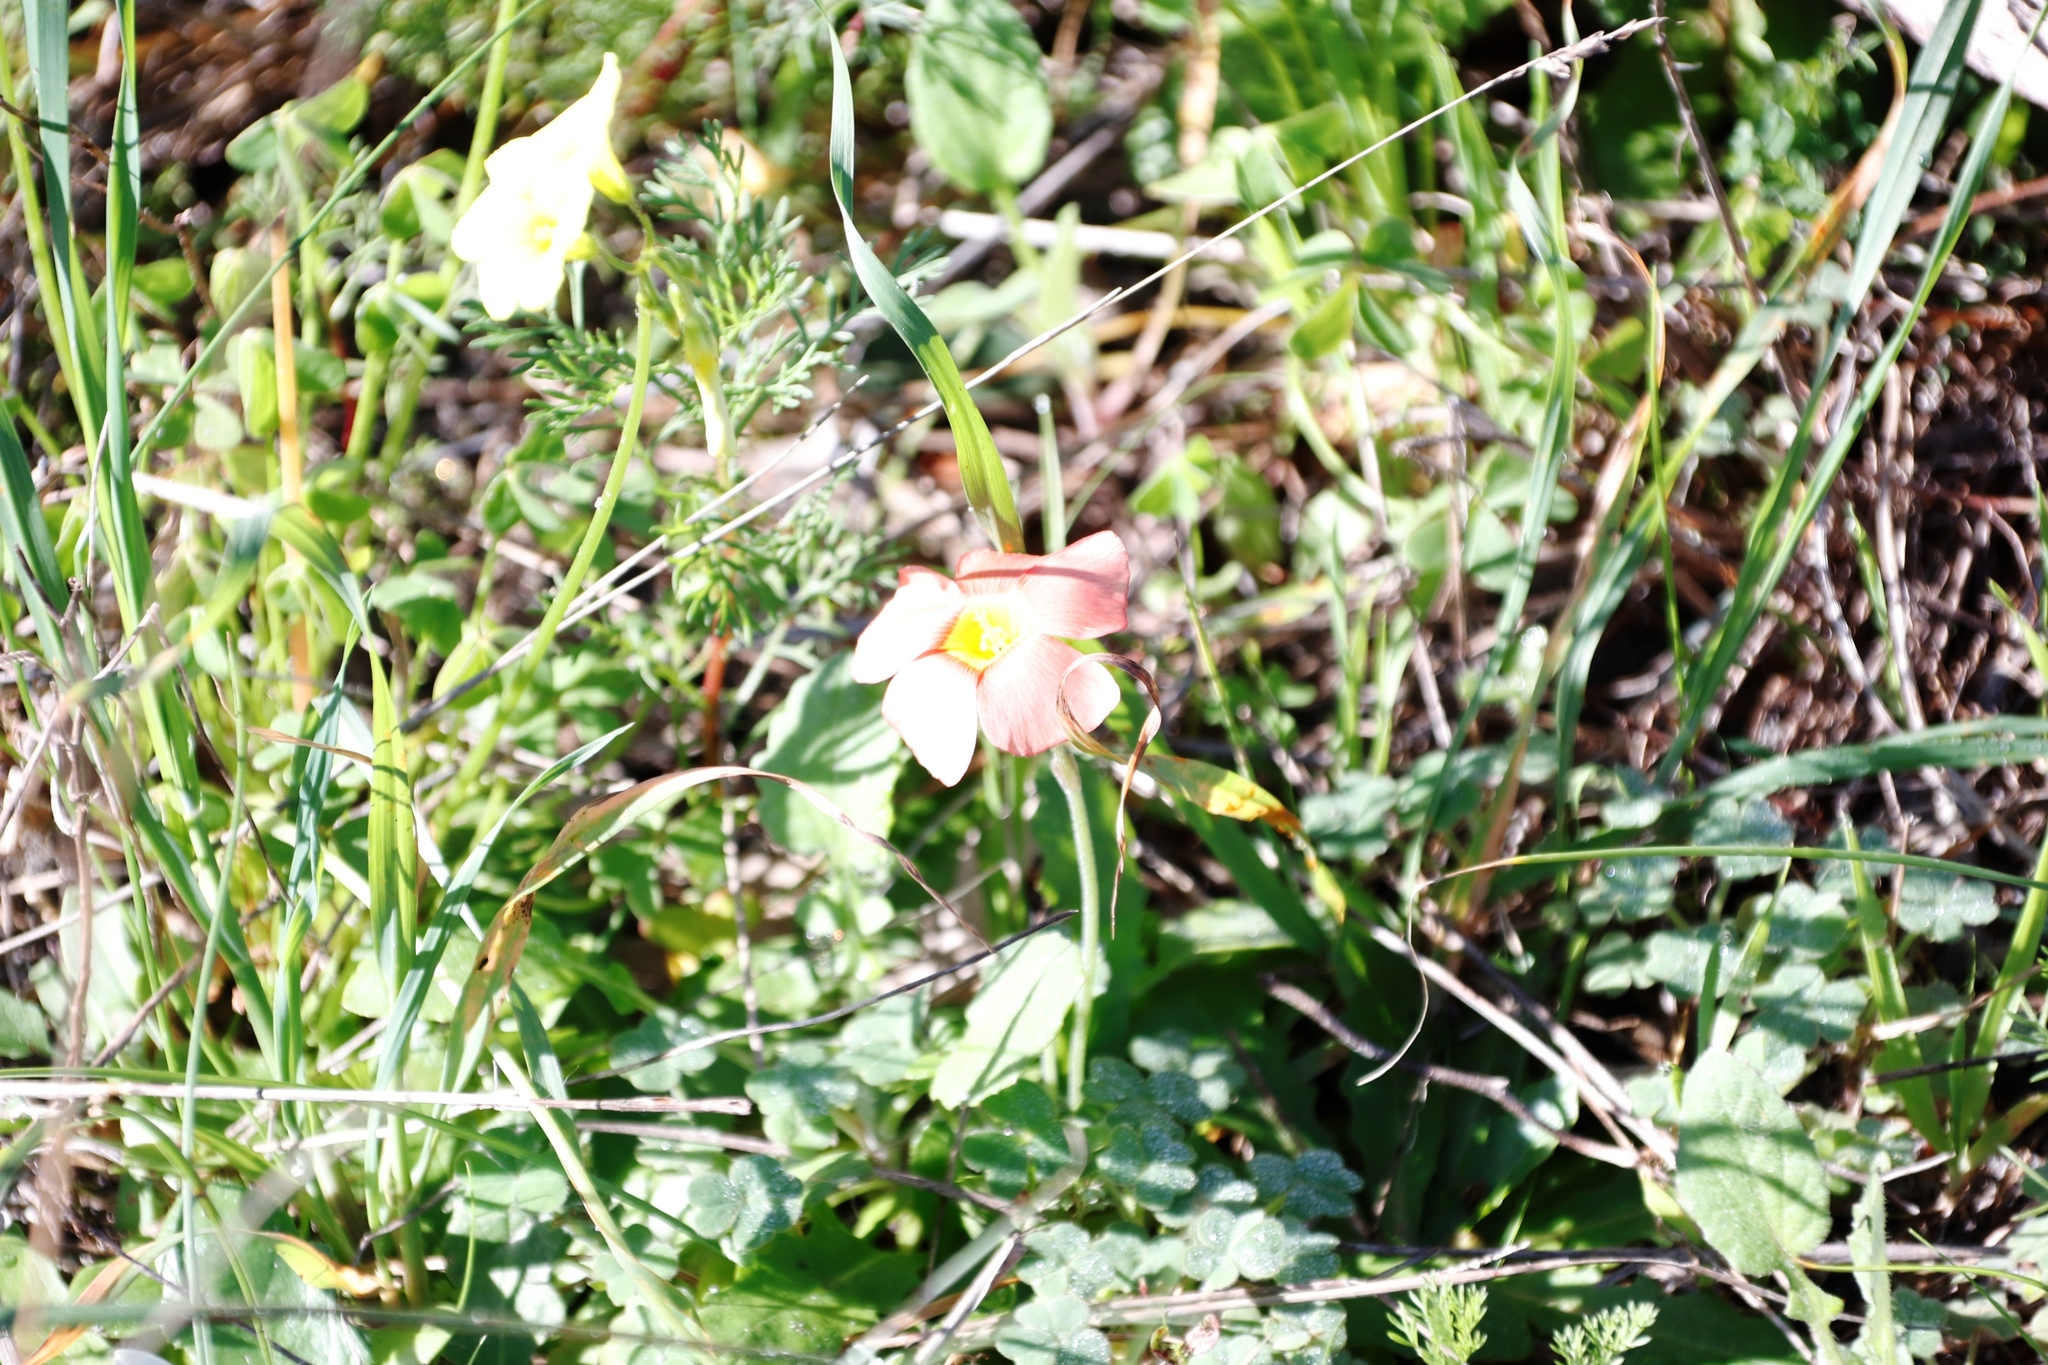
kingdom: Plantae
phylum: Tracheophyta
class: Magnoliopsida
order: Oxalidales
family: Oxalidaceae
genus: Oxalis
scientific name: Oxalis obtusa
